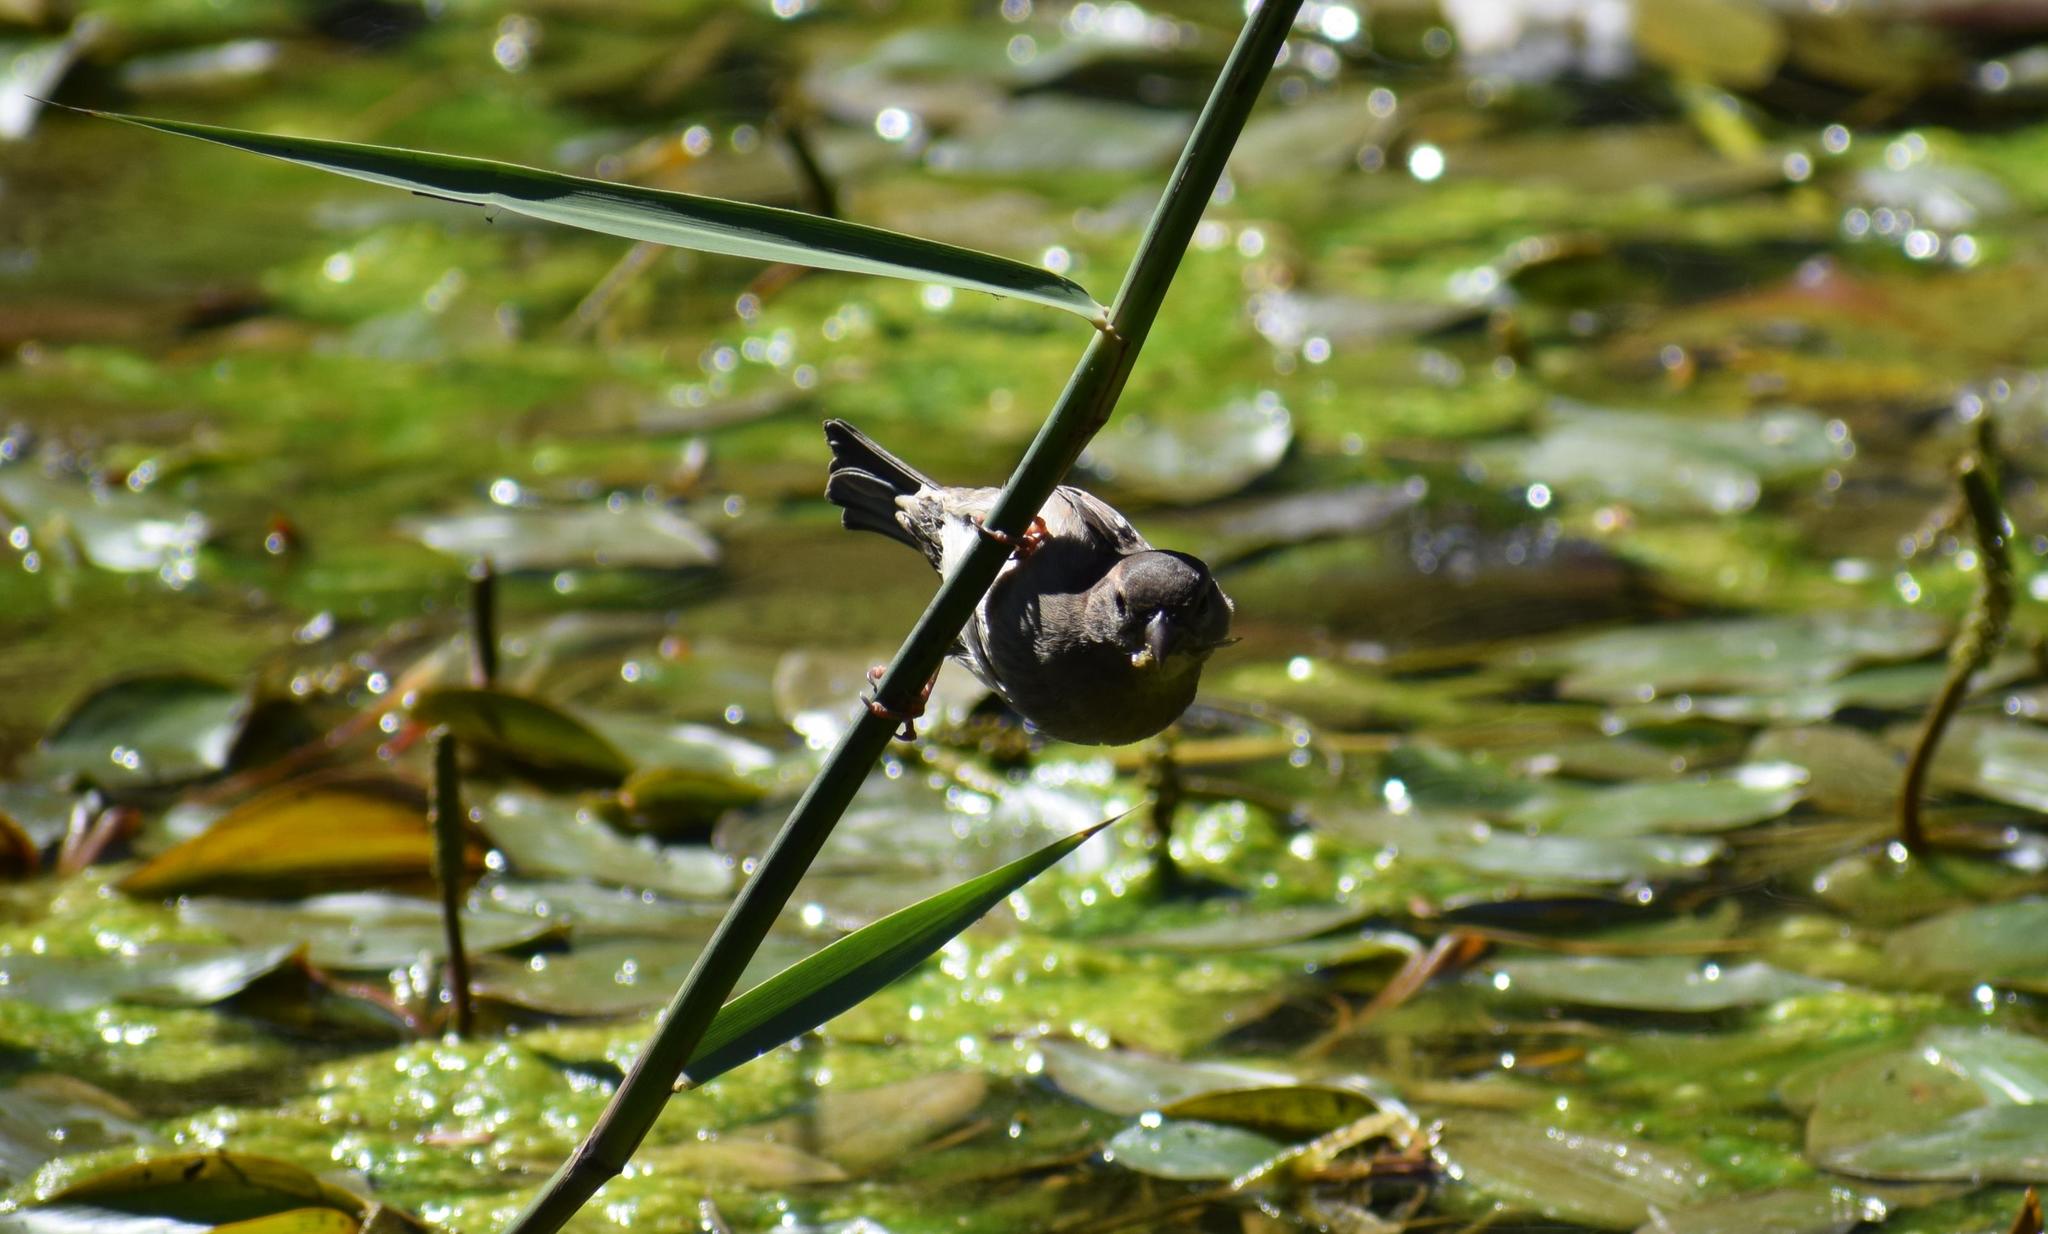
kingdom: Animalia
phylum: Chordata
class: Aves
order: Passeriformes
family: Passeridae
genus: Passer
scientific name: Passer domesticus
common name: House sparrow
